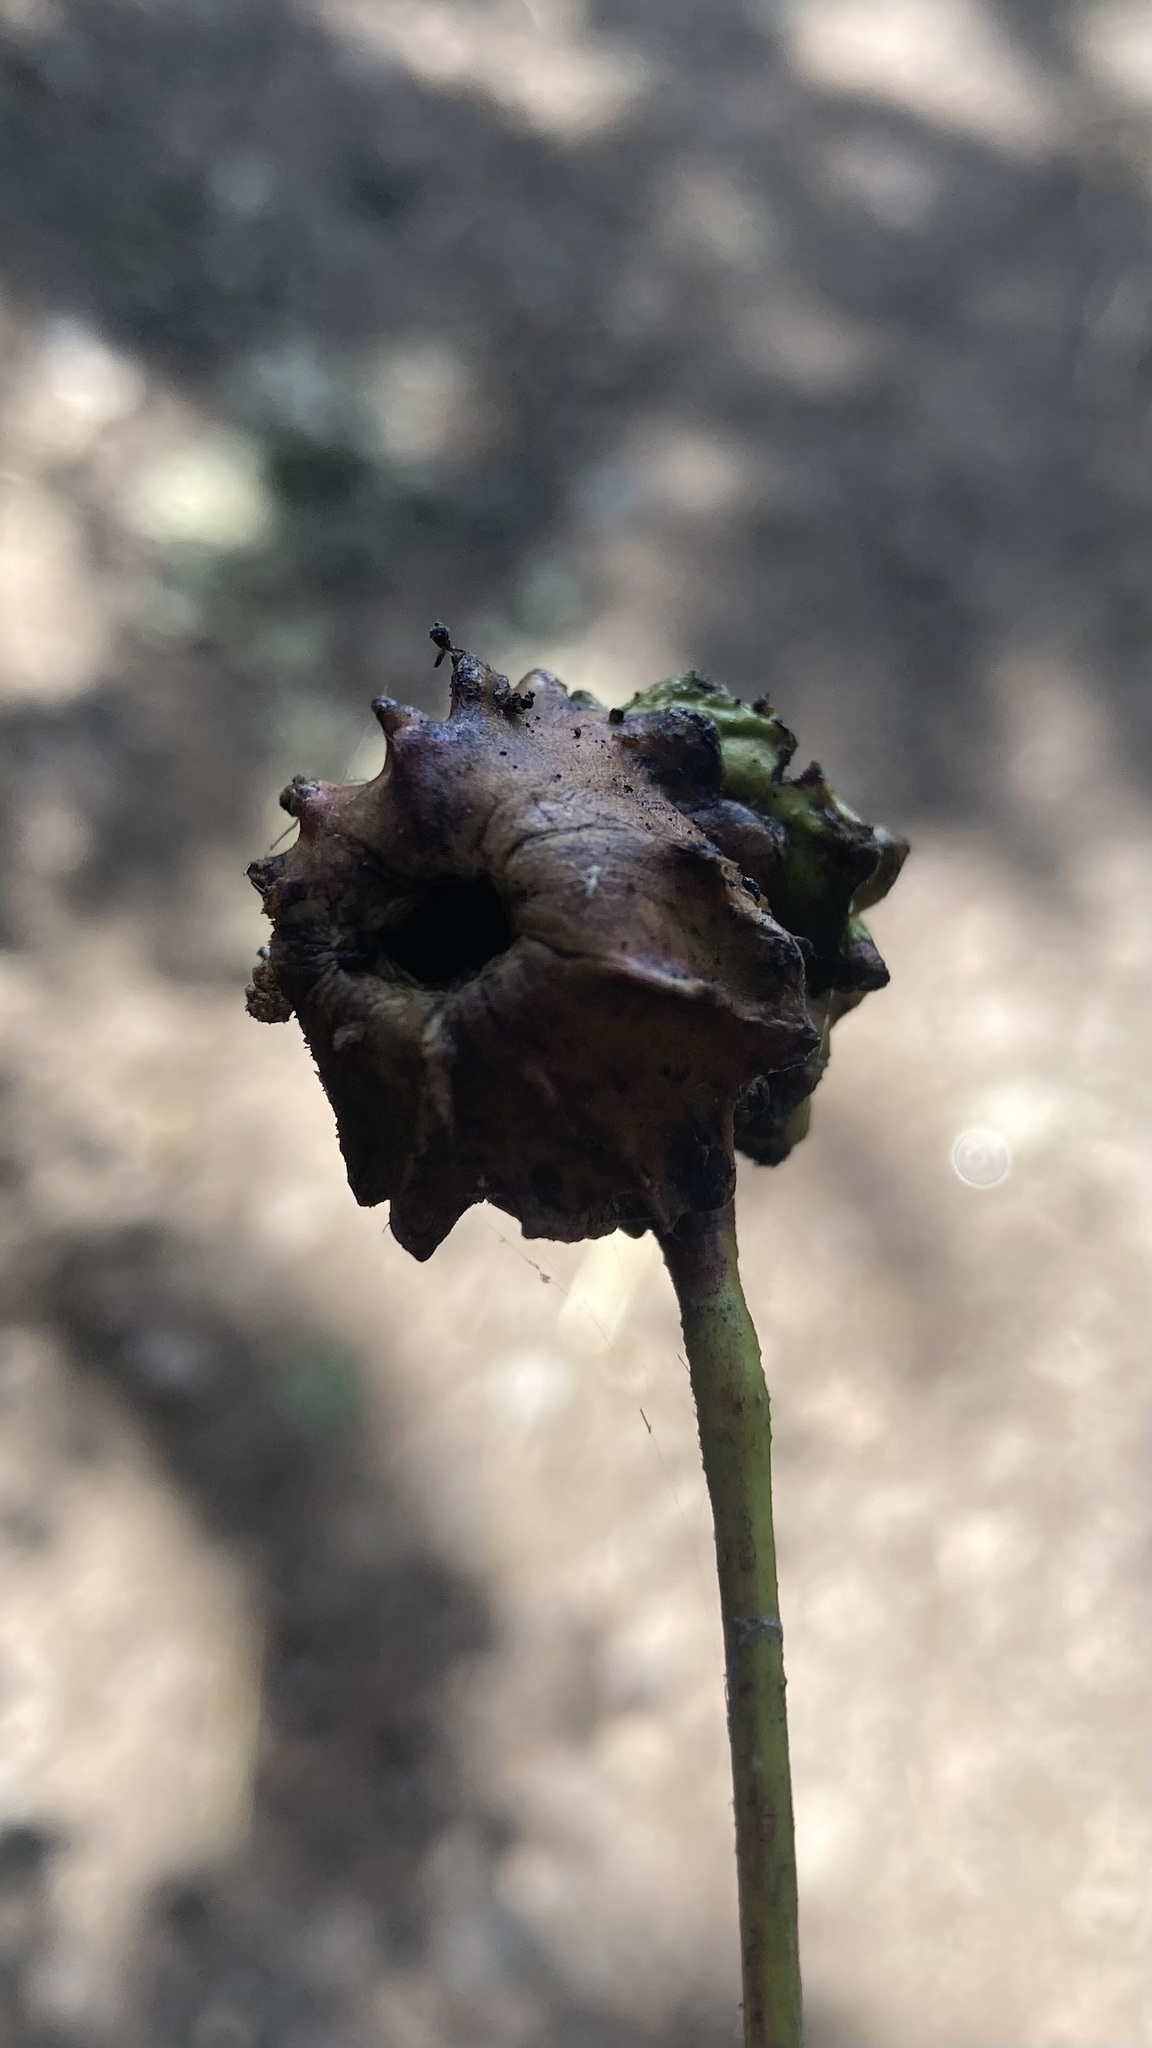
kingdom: Animalia
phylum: Arthropoda
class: Insecta
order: Hymenoptera
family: Cynipidae
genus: Andricus
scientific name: Andricus quercuscalicis
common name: Knopper gall
